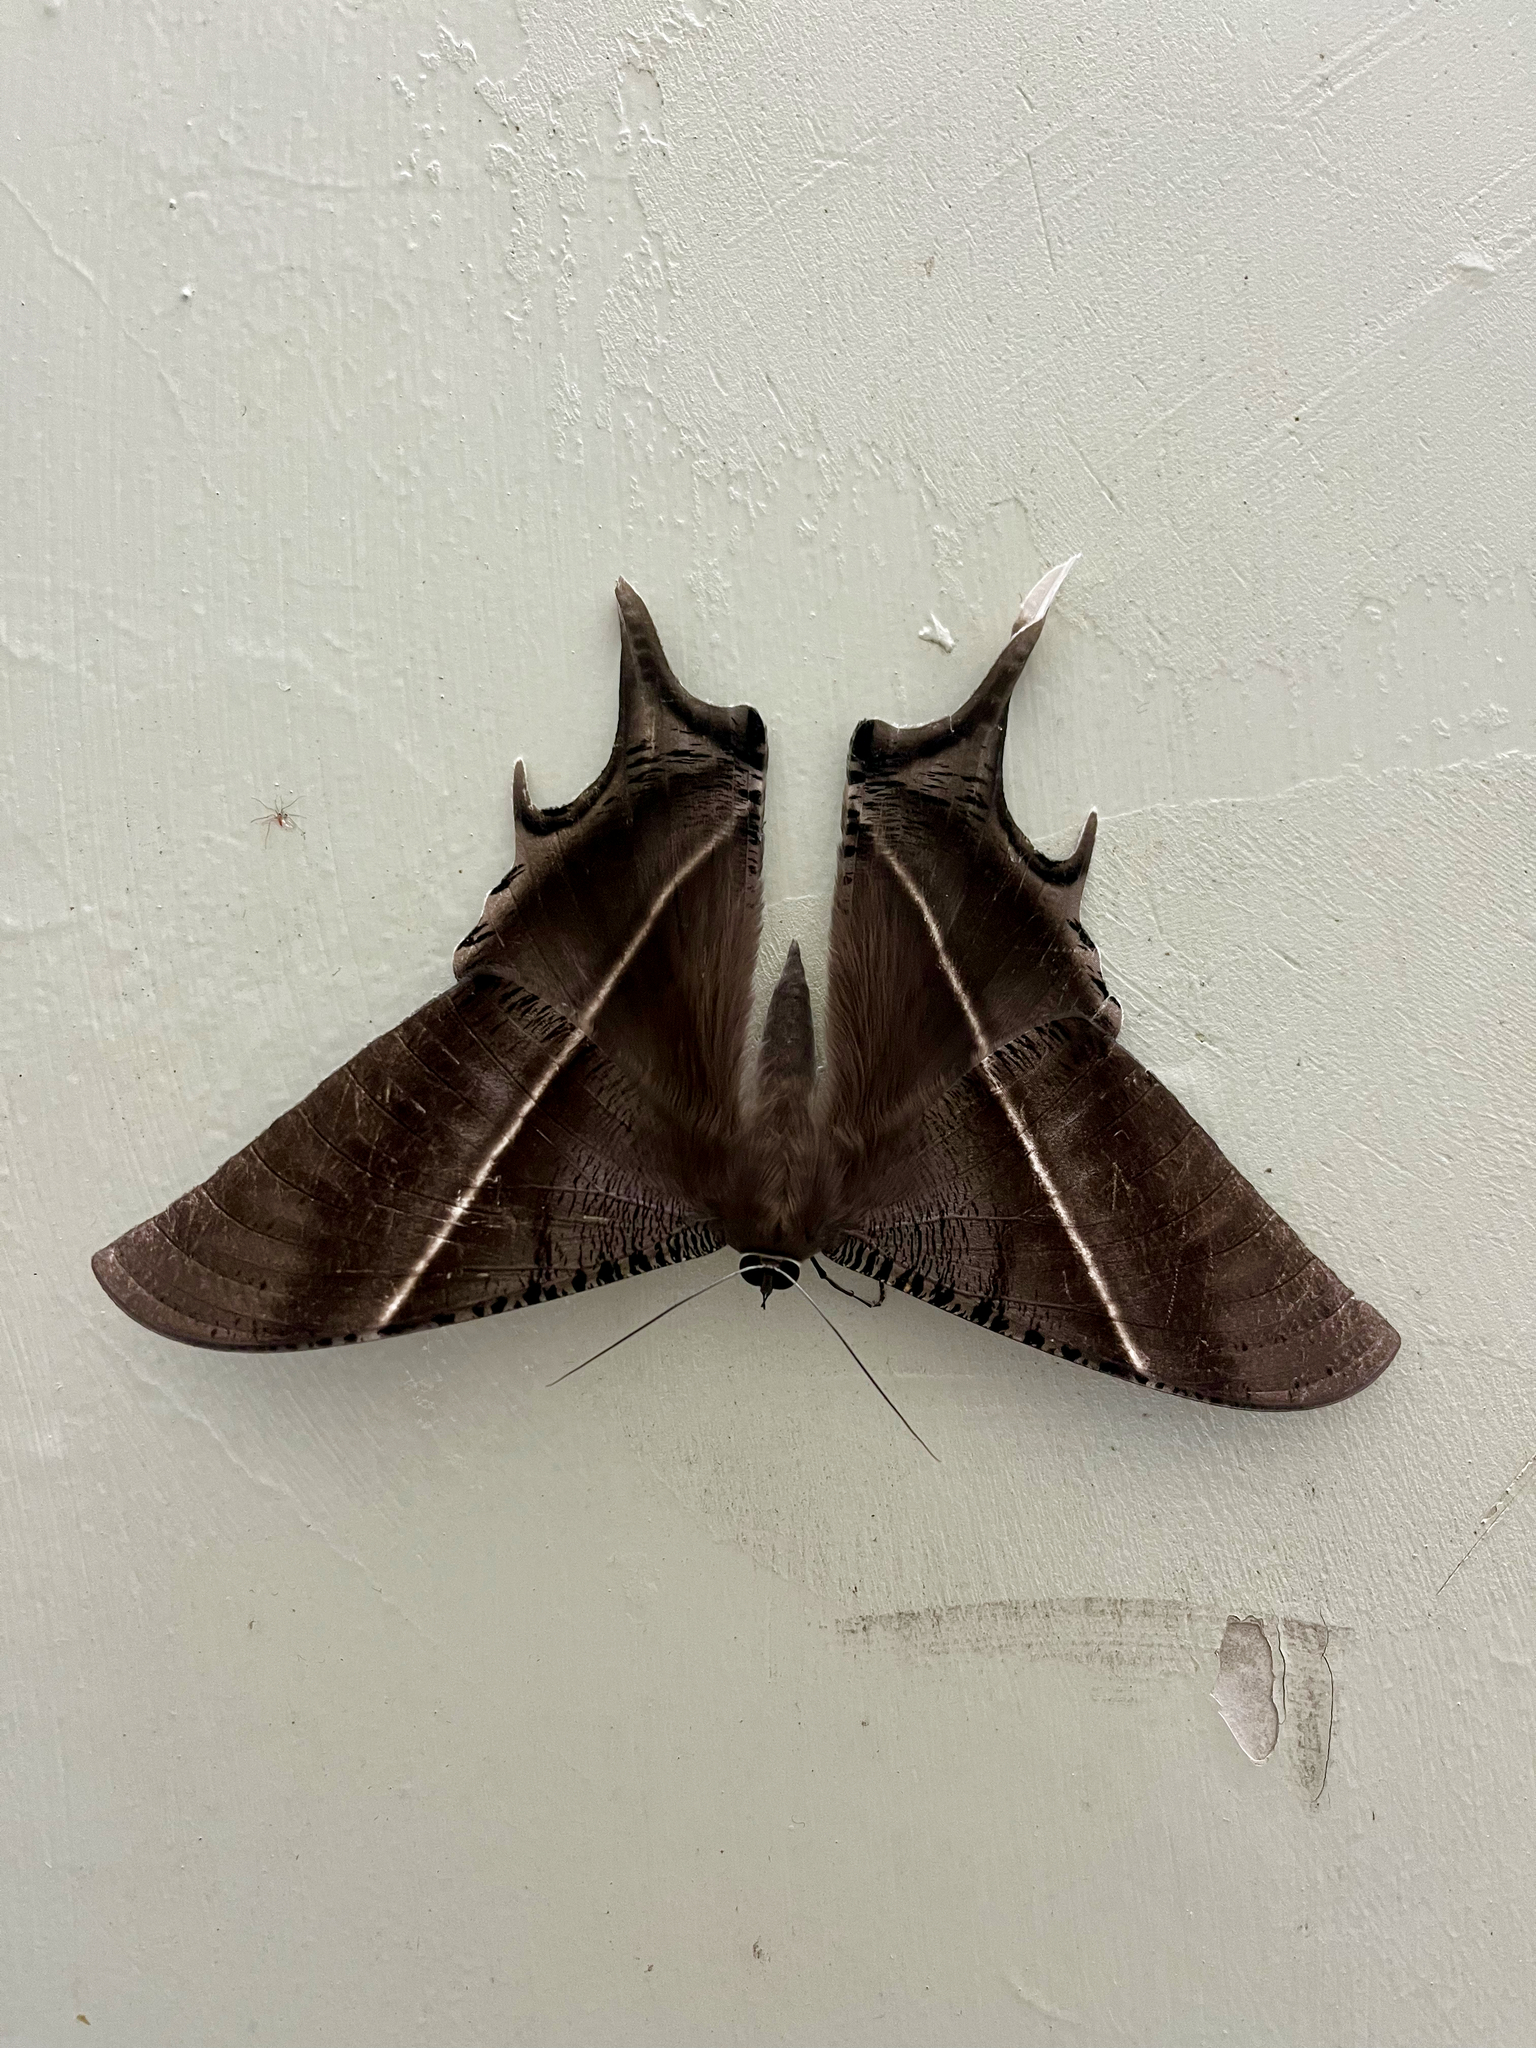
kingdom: Animalia
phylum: Arthropoda
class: Insecta
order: Lepidoptera
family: Uraniidae
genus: Lyssa
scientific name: Lyssa zampa
